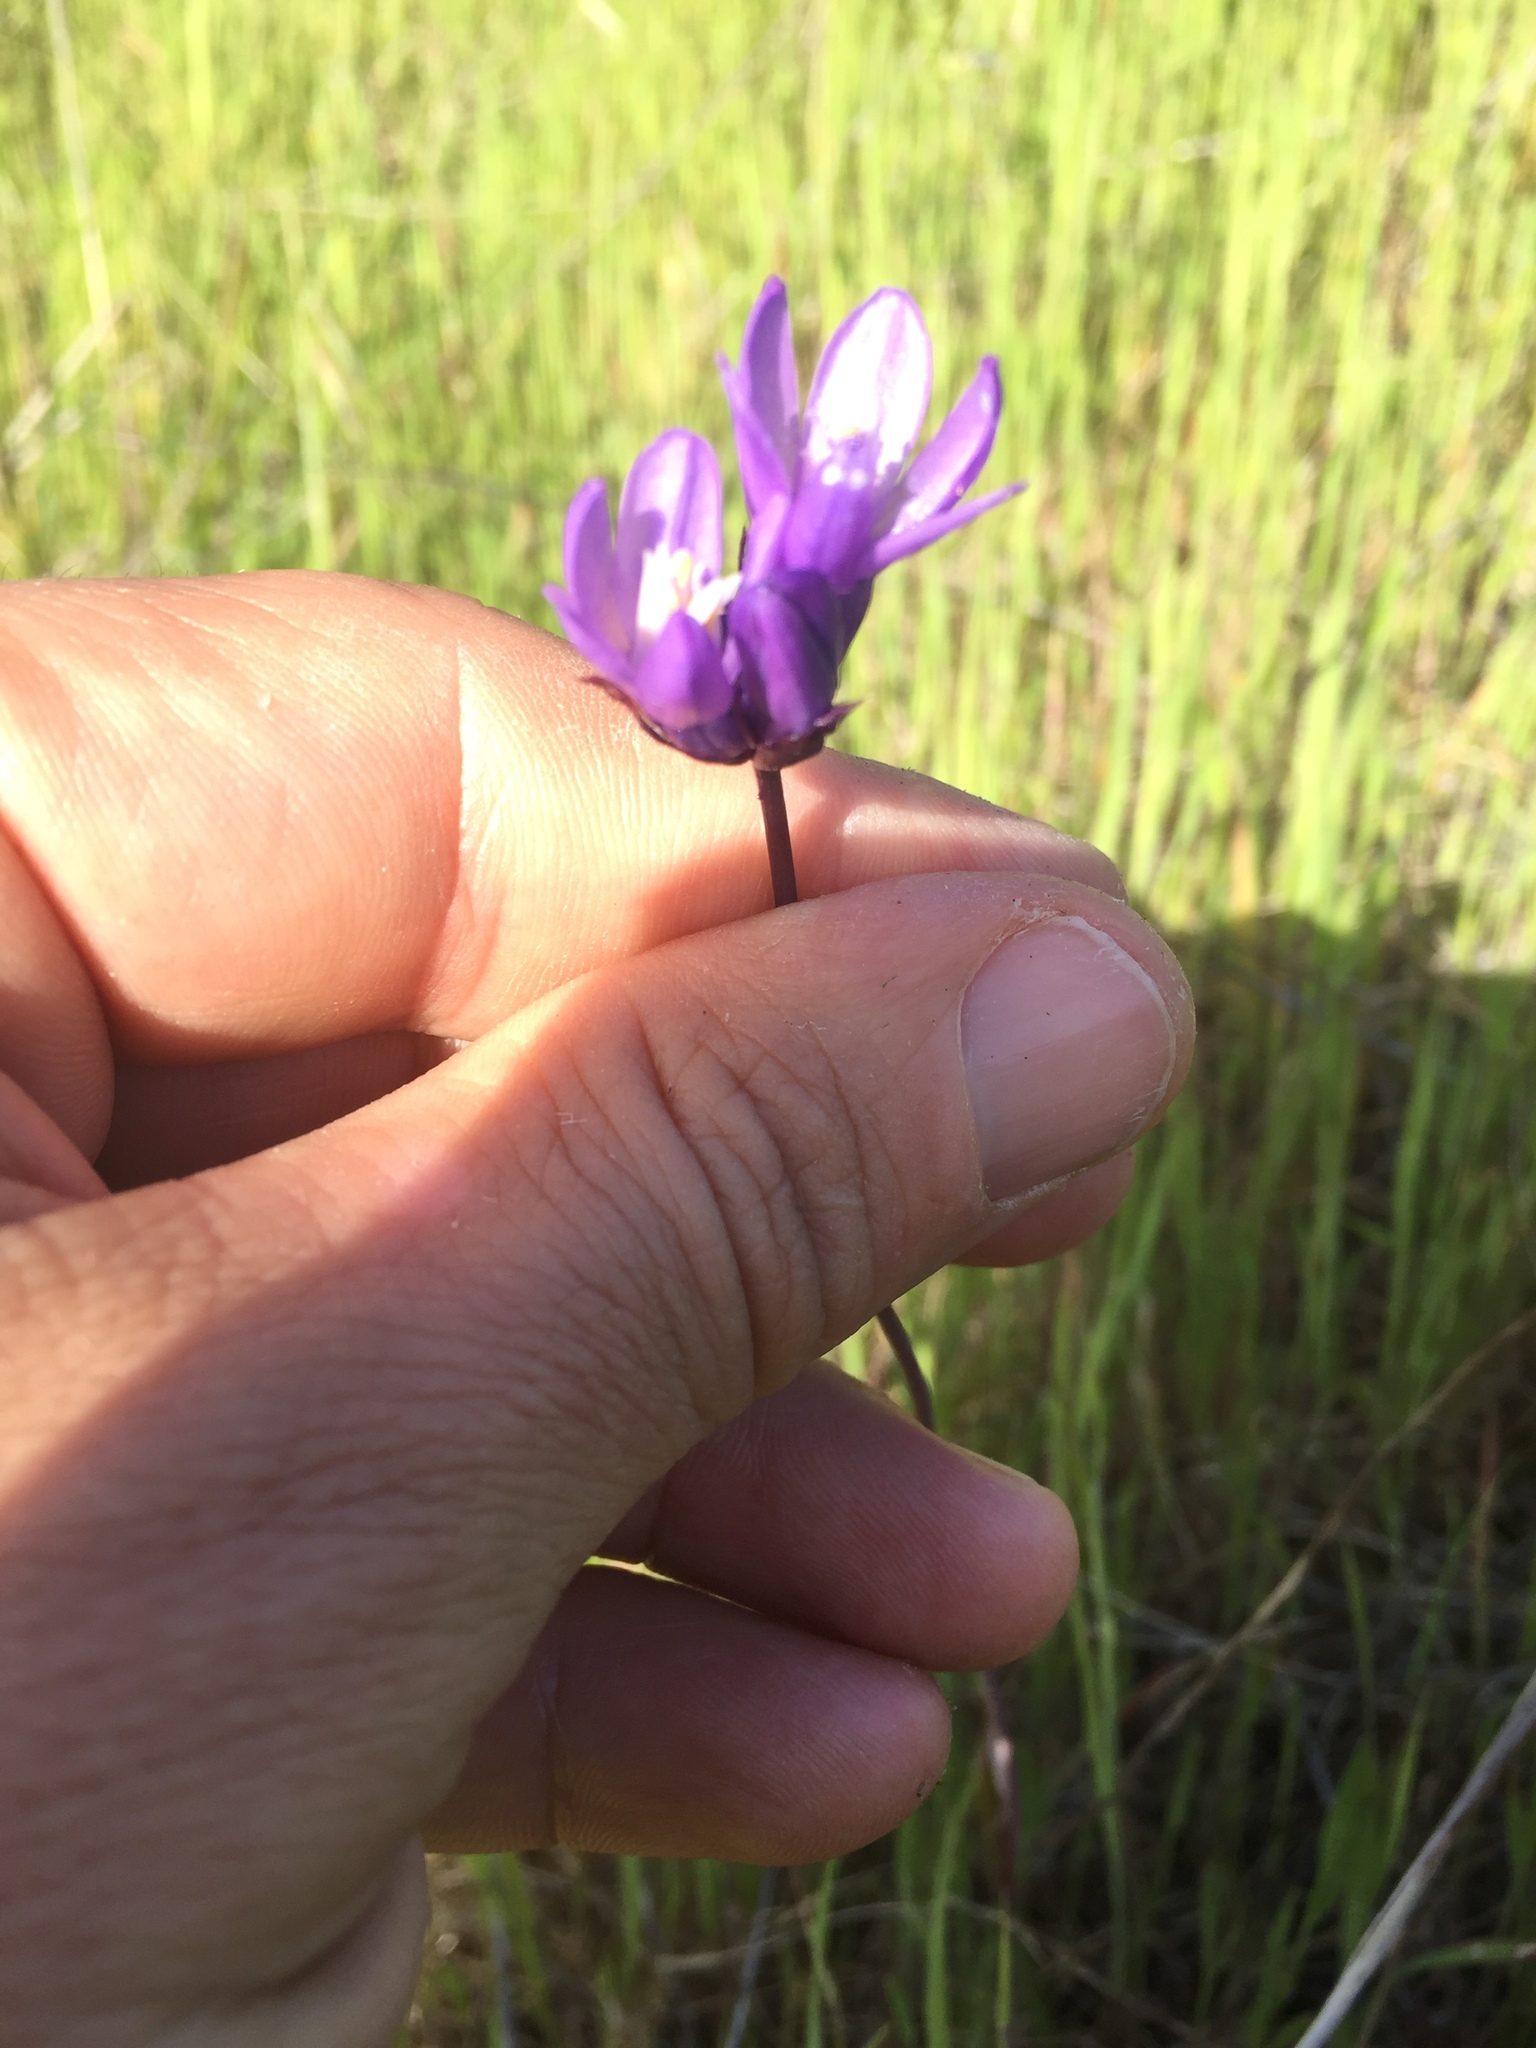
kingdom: Plantae
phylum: Tracheophyta
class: Liliopsida
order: Asparagales
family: Asparagaceae
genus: Dipterostemon
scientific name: Dipterostemon capitatus
